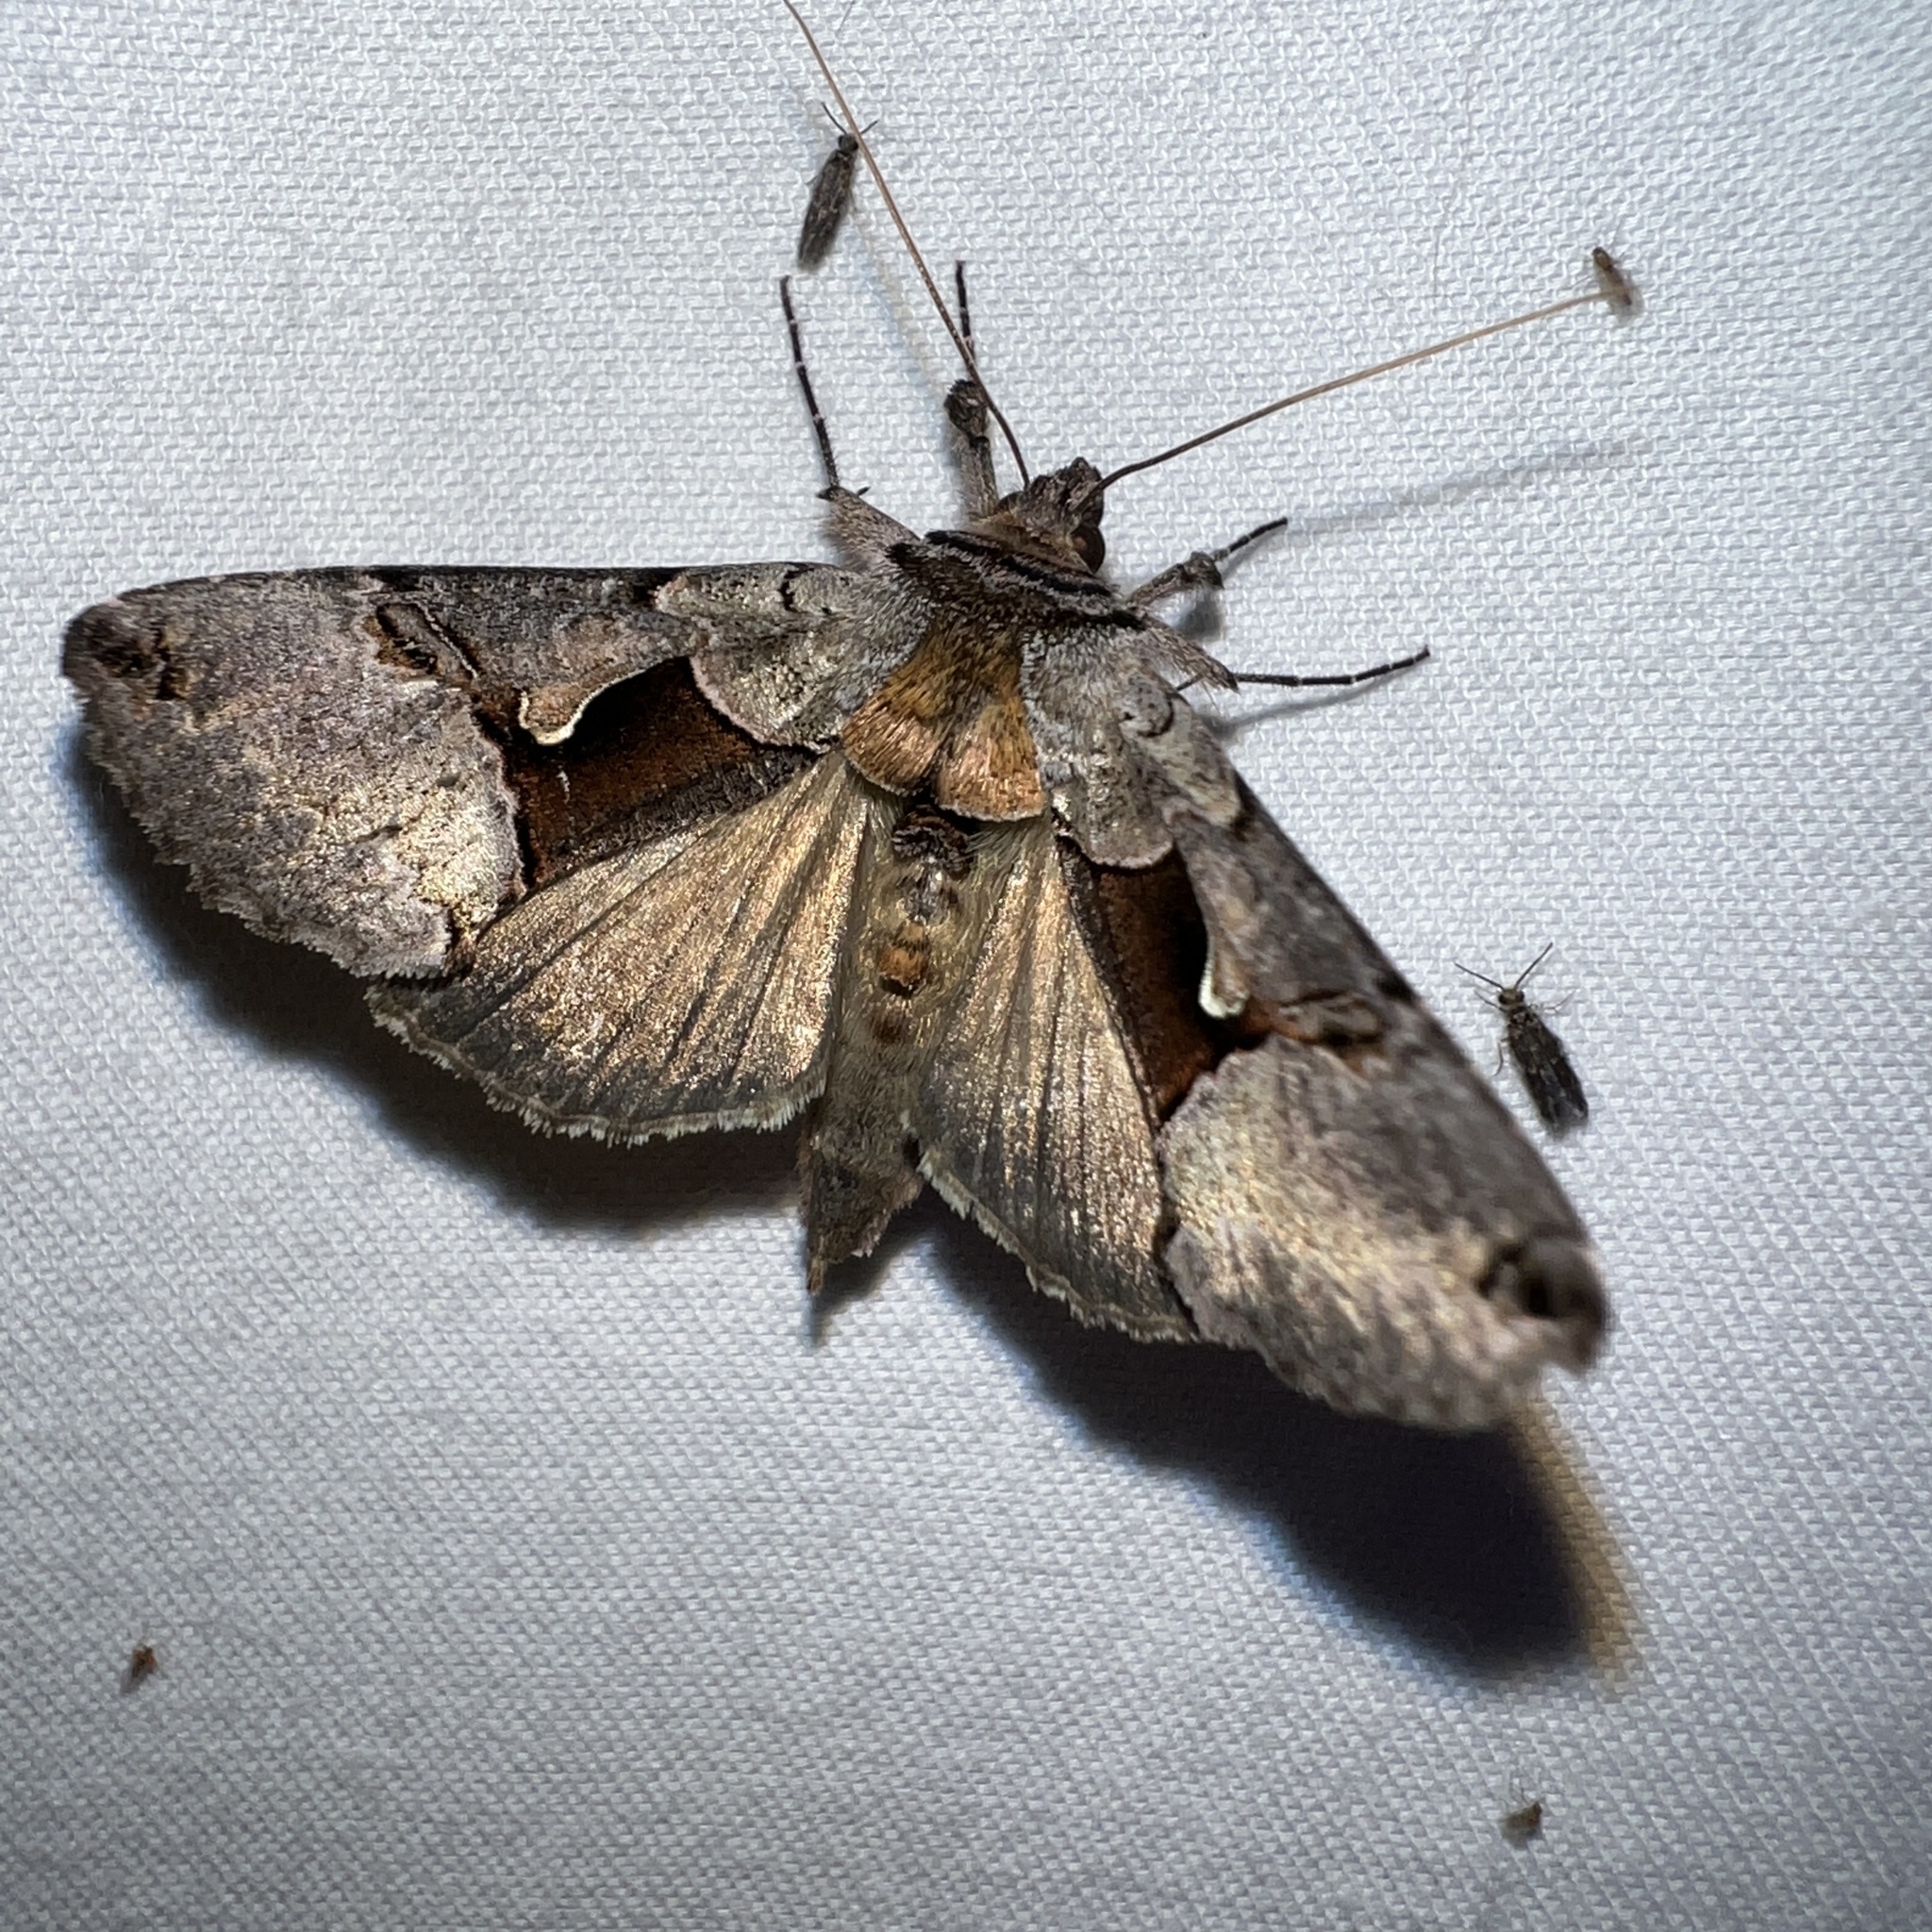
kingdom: Animalia
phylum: Arthropoda
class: Insecta
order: Lepidoptera
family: Noctuidae
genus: Autographa
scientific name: Autographa ampla
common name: Large looper moth
